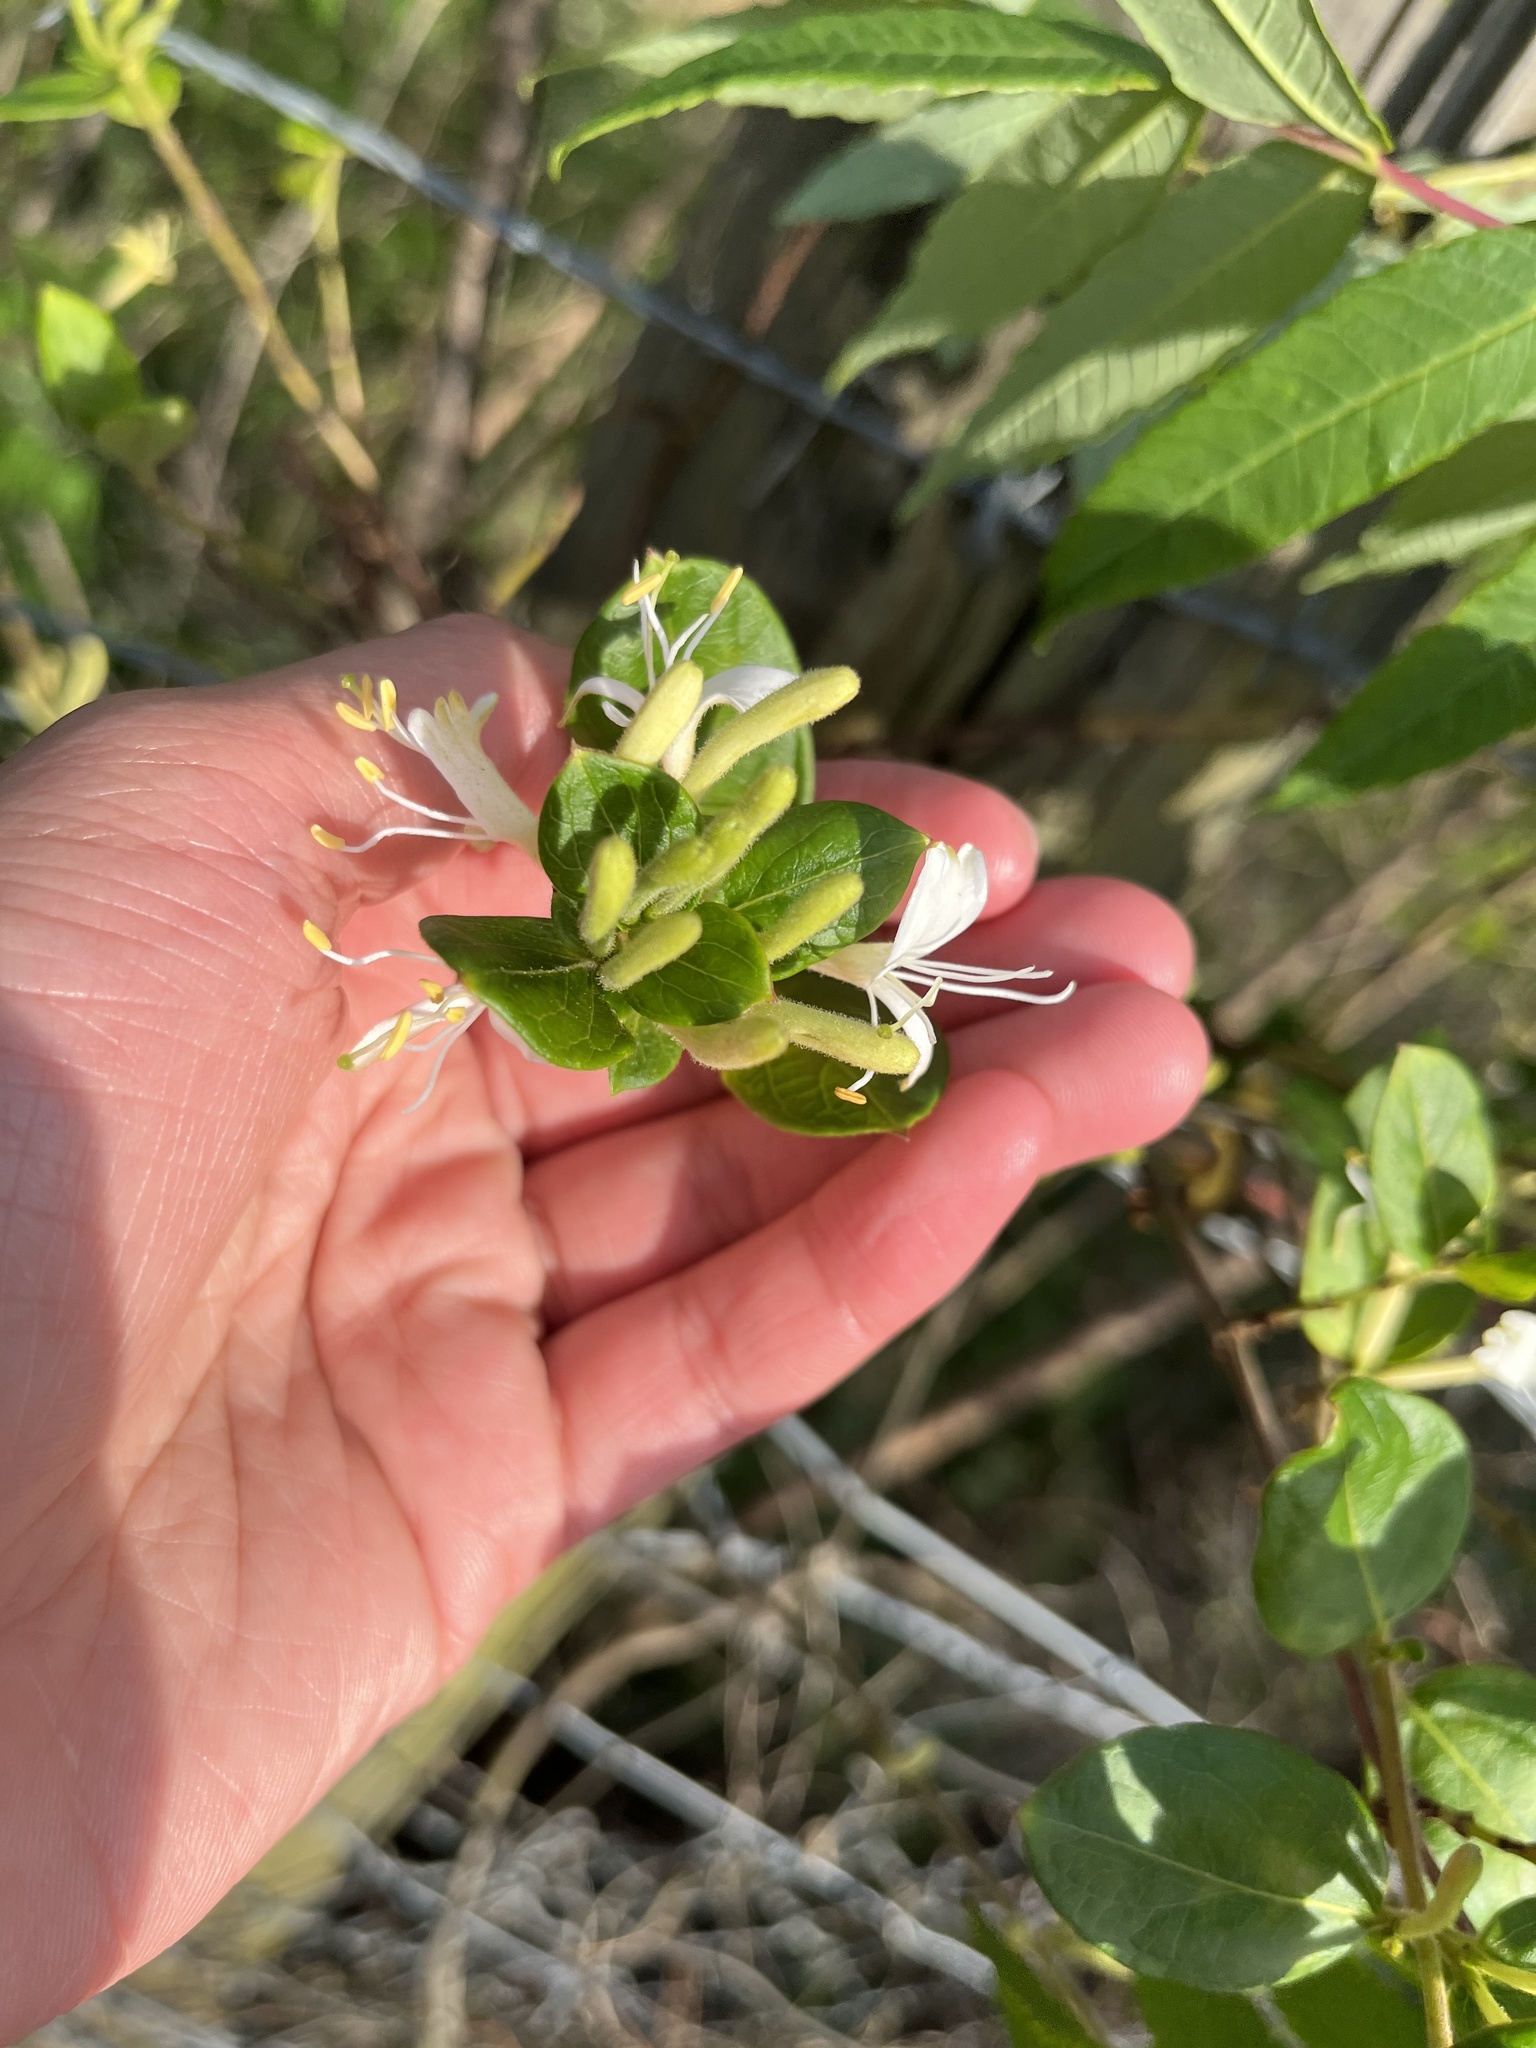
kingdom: Plantae
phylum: Tracheophyta
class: Magnoliopsida
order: Dipsacales
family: Caprifoliaceae
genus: Lonicera
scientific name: Lonicera japonica
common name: Japanese honeysuckle
